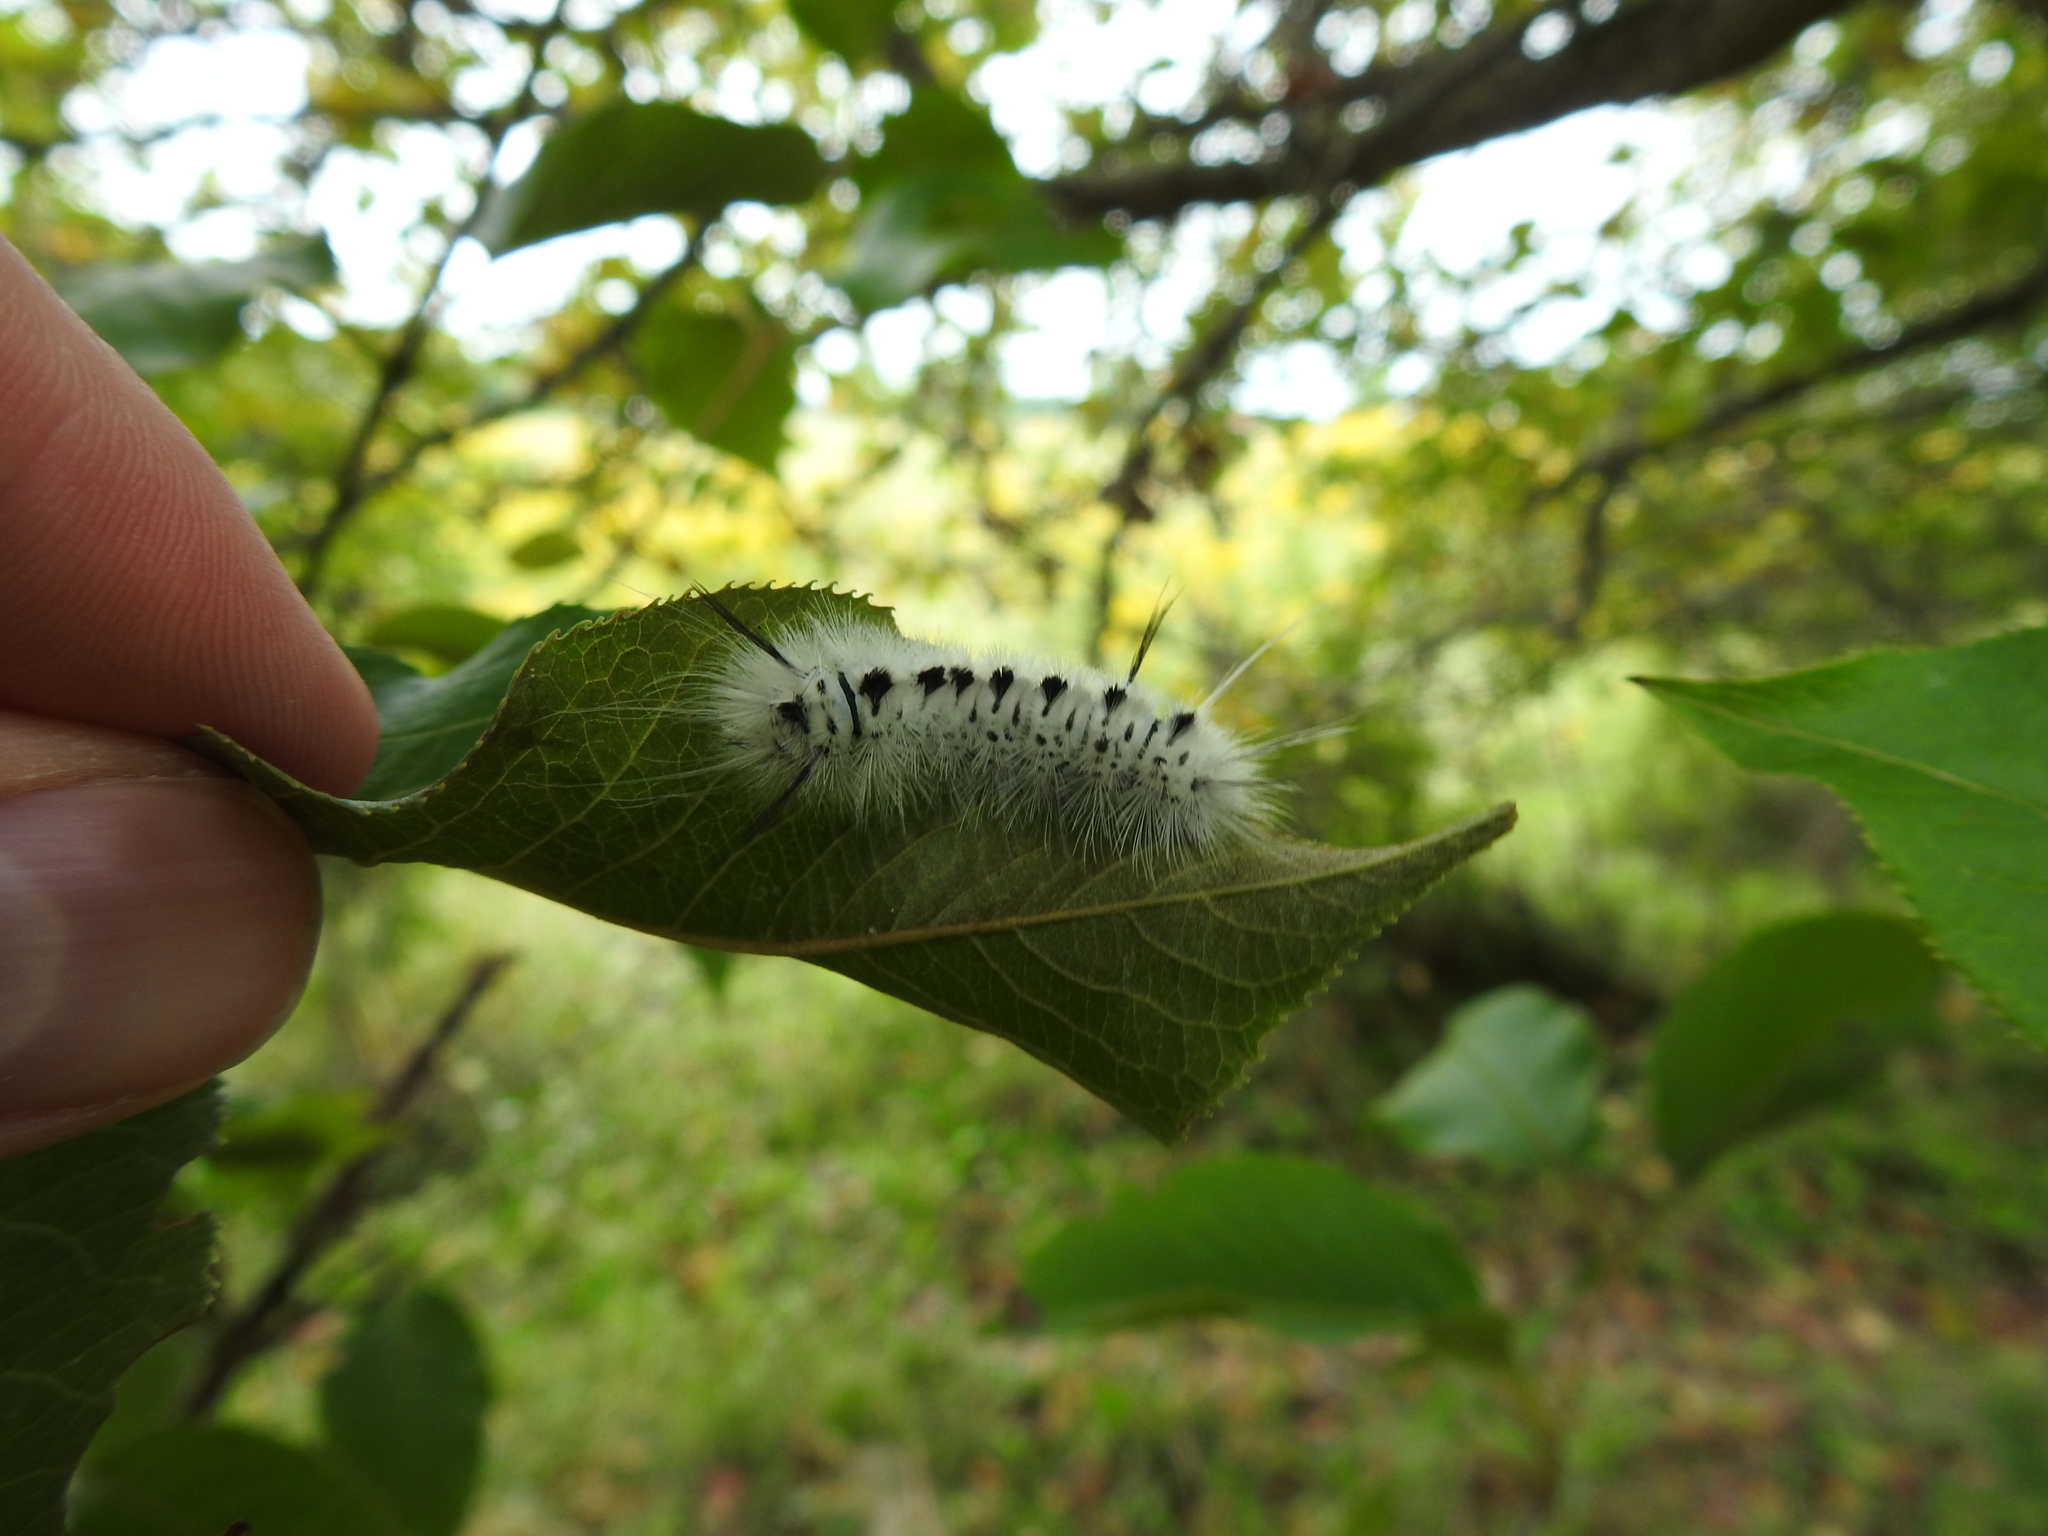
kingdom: Animalia
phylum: Arthropoda
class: Insecta
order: Lepidoptera
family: Erebidae
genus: Lophocampa
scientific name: Lophocampa caryae
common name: Hickory tussock moth
